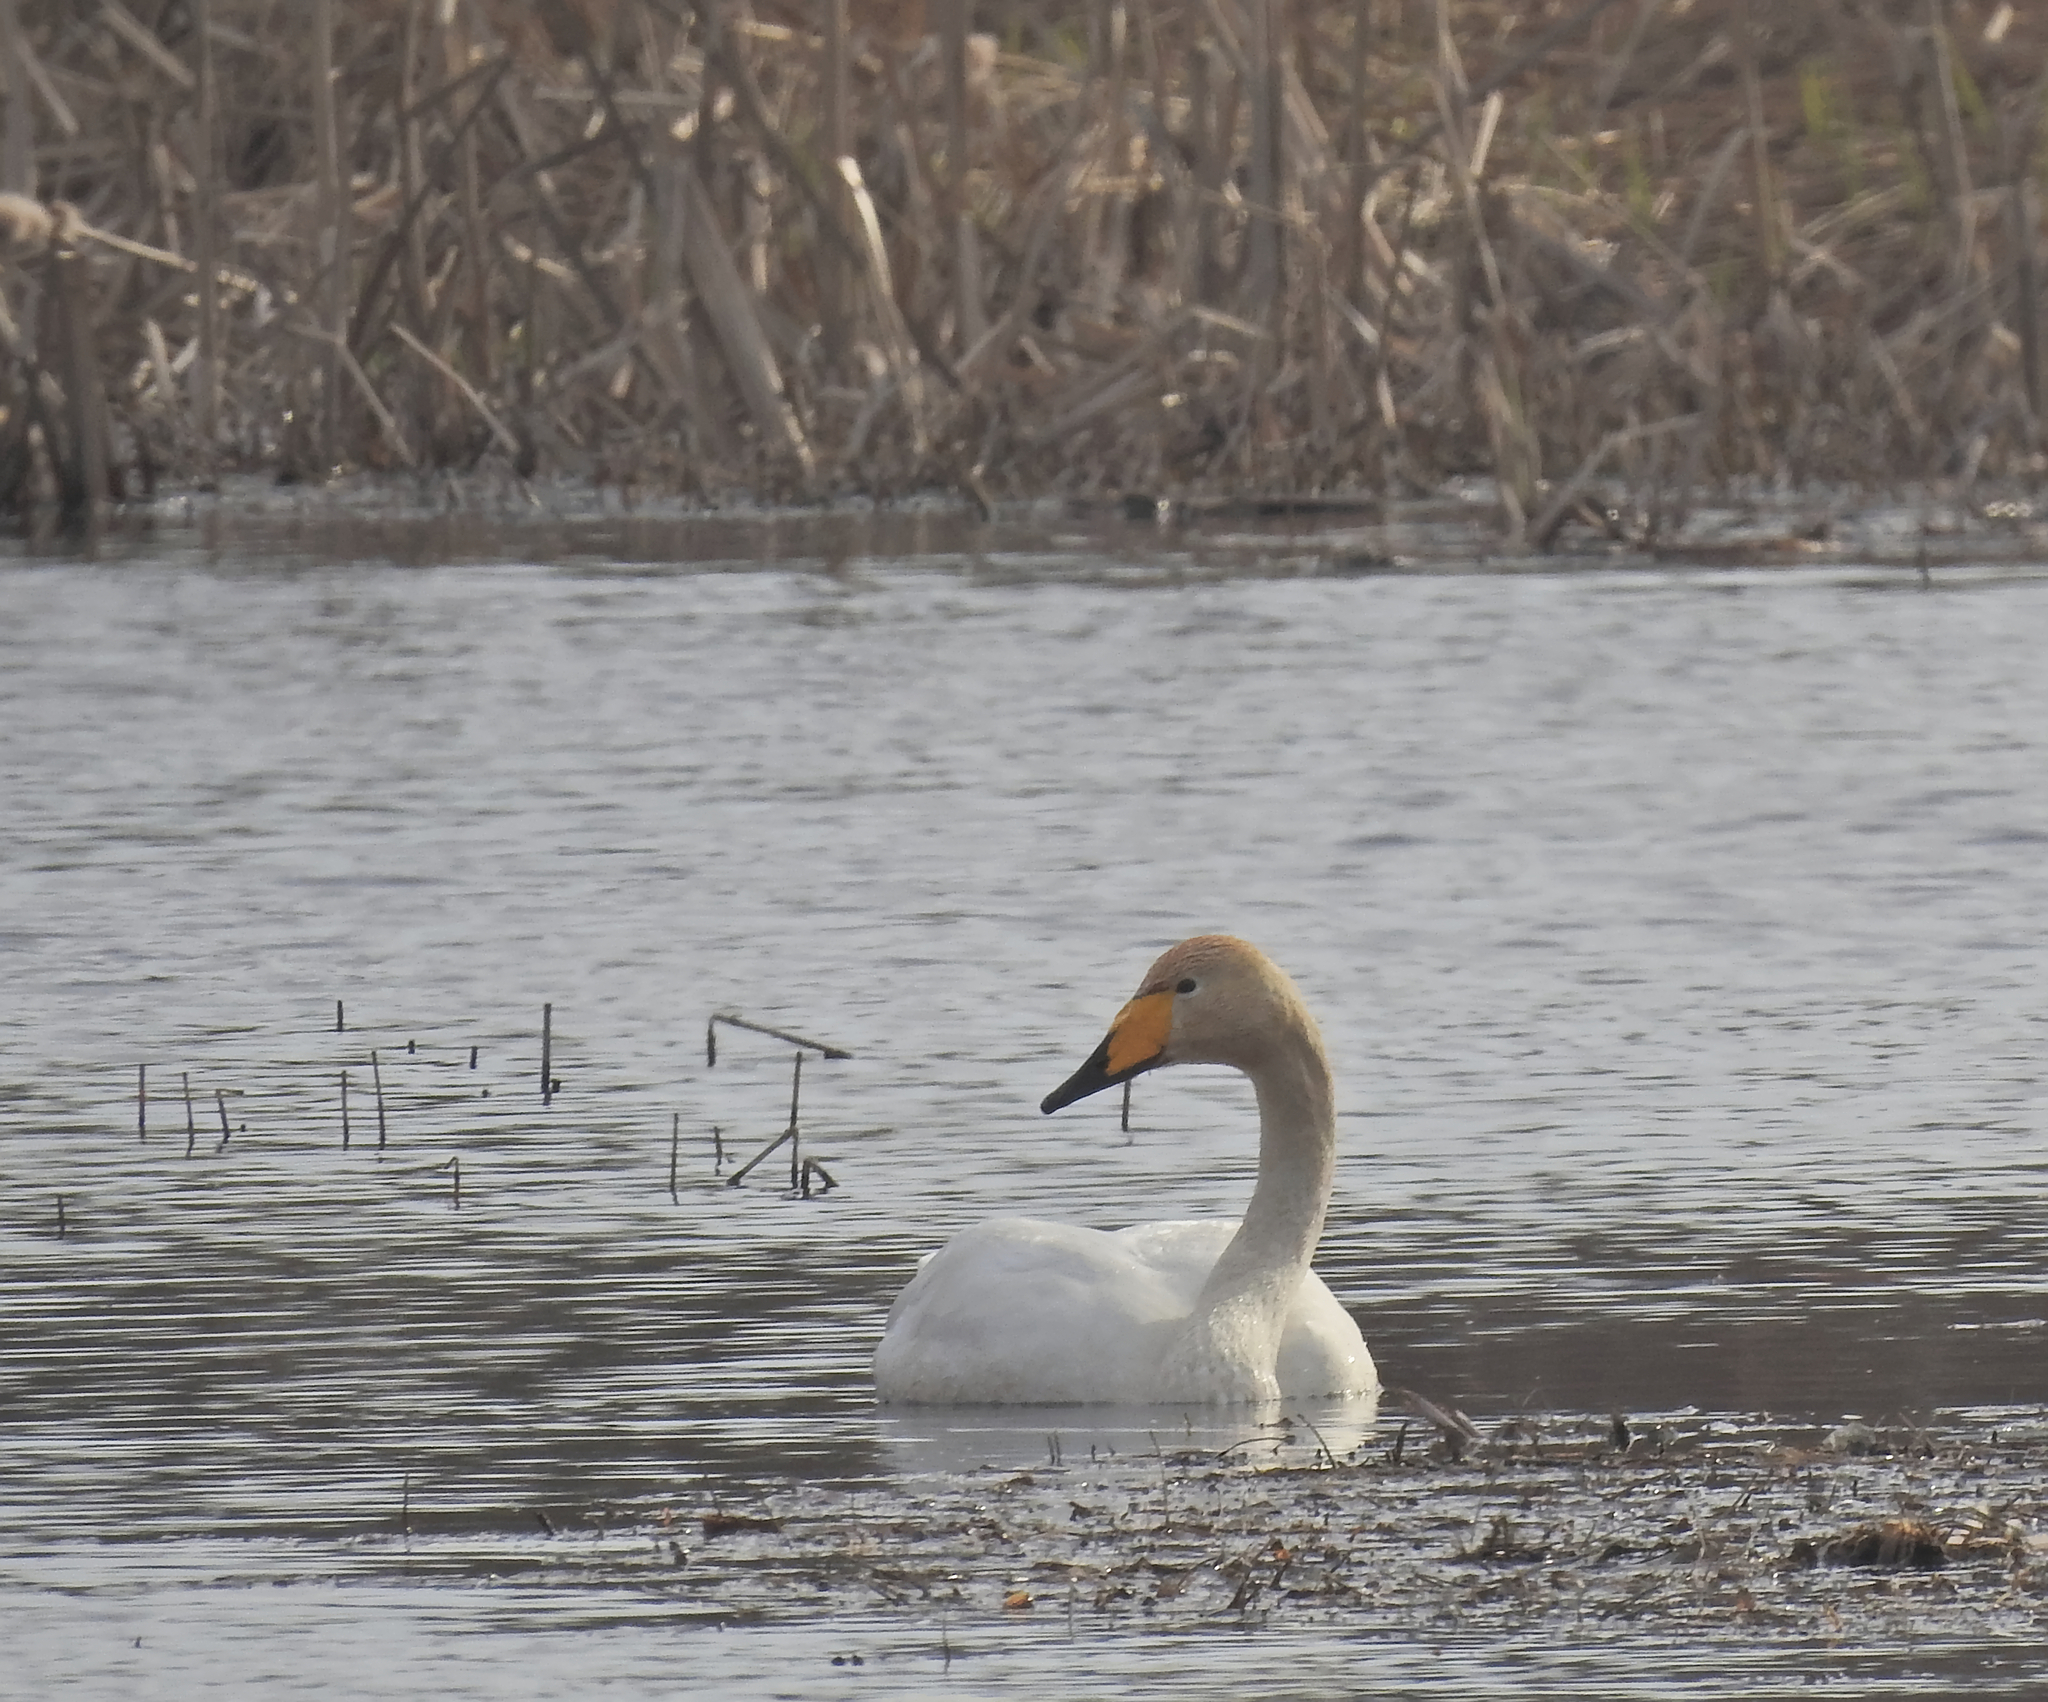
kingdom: Animalia
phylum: Chordata
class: Aves
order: Anseriformes
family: Anatidae
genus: Cygnus
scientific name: Cygnus cygnus
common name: Whooper swan
